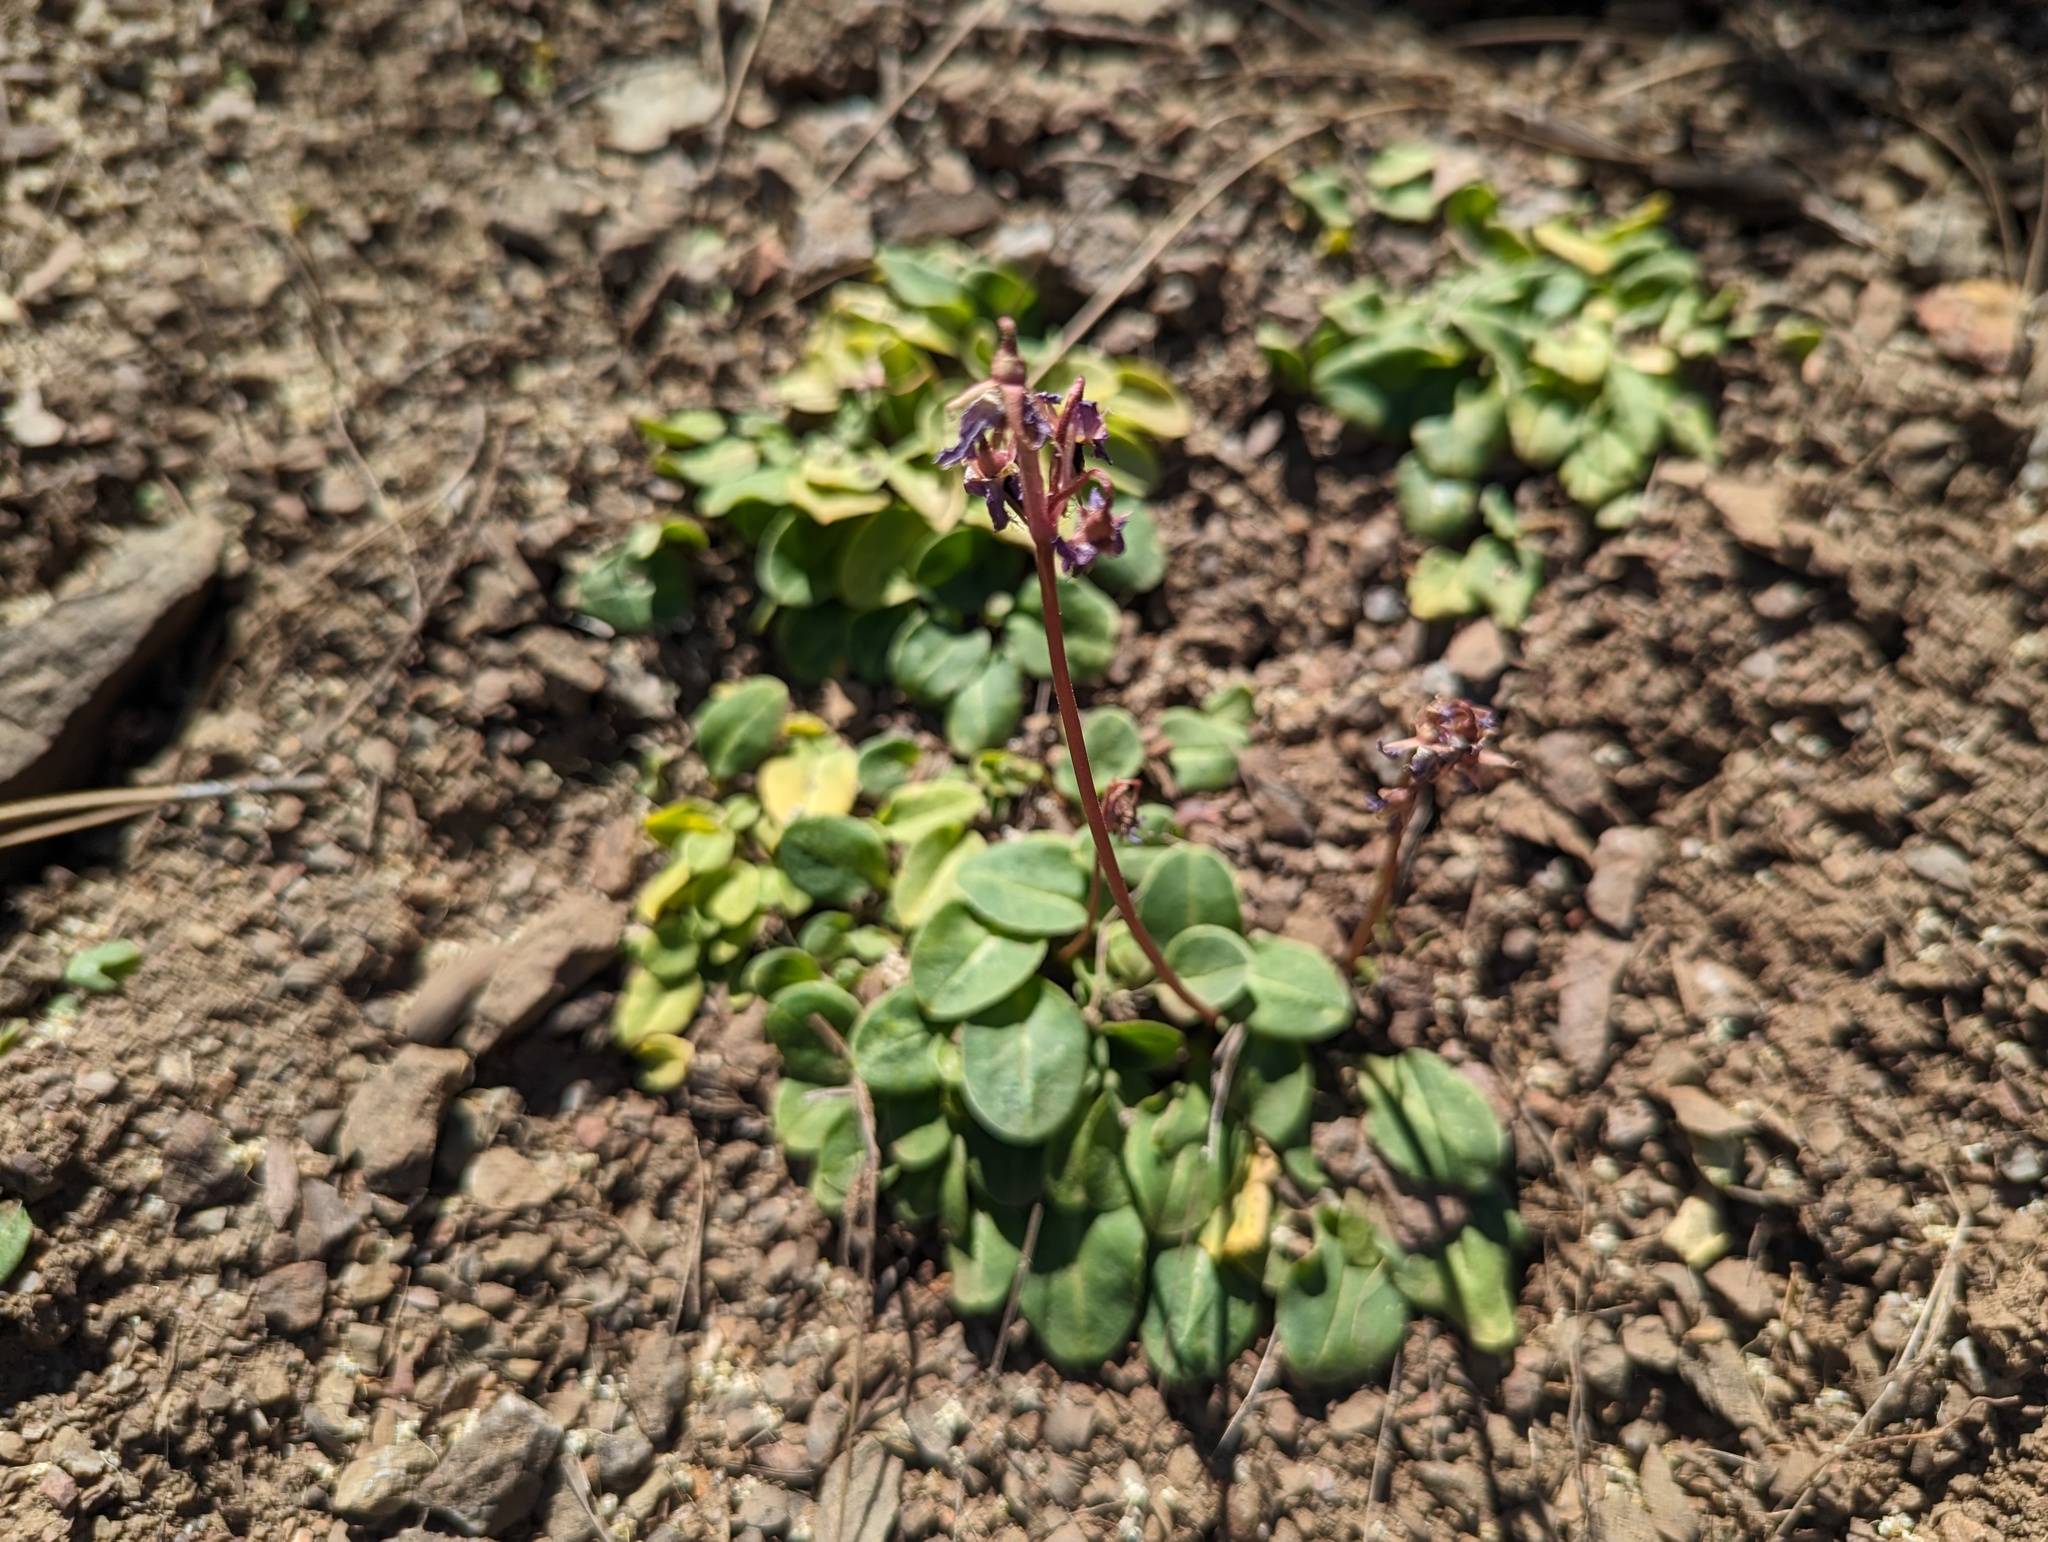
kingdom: Plantae
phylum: Tracheophyta
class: Magnoliopsida
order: Ericales
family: Primulaceae
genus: Dodecatheon
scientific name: Dodecatheon hendersonii
